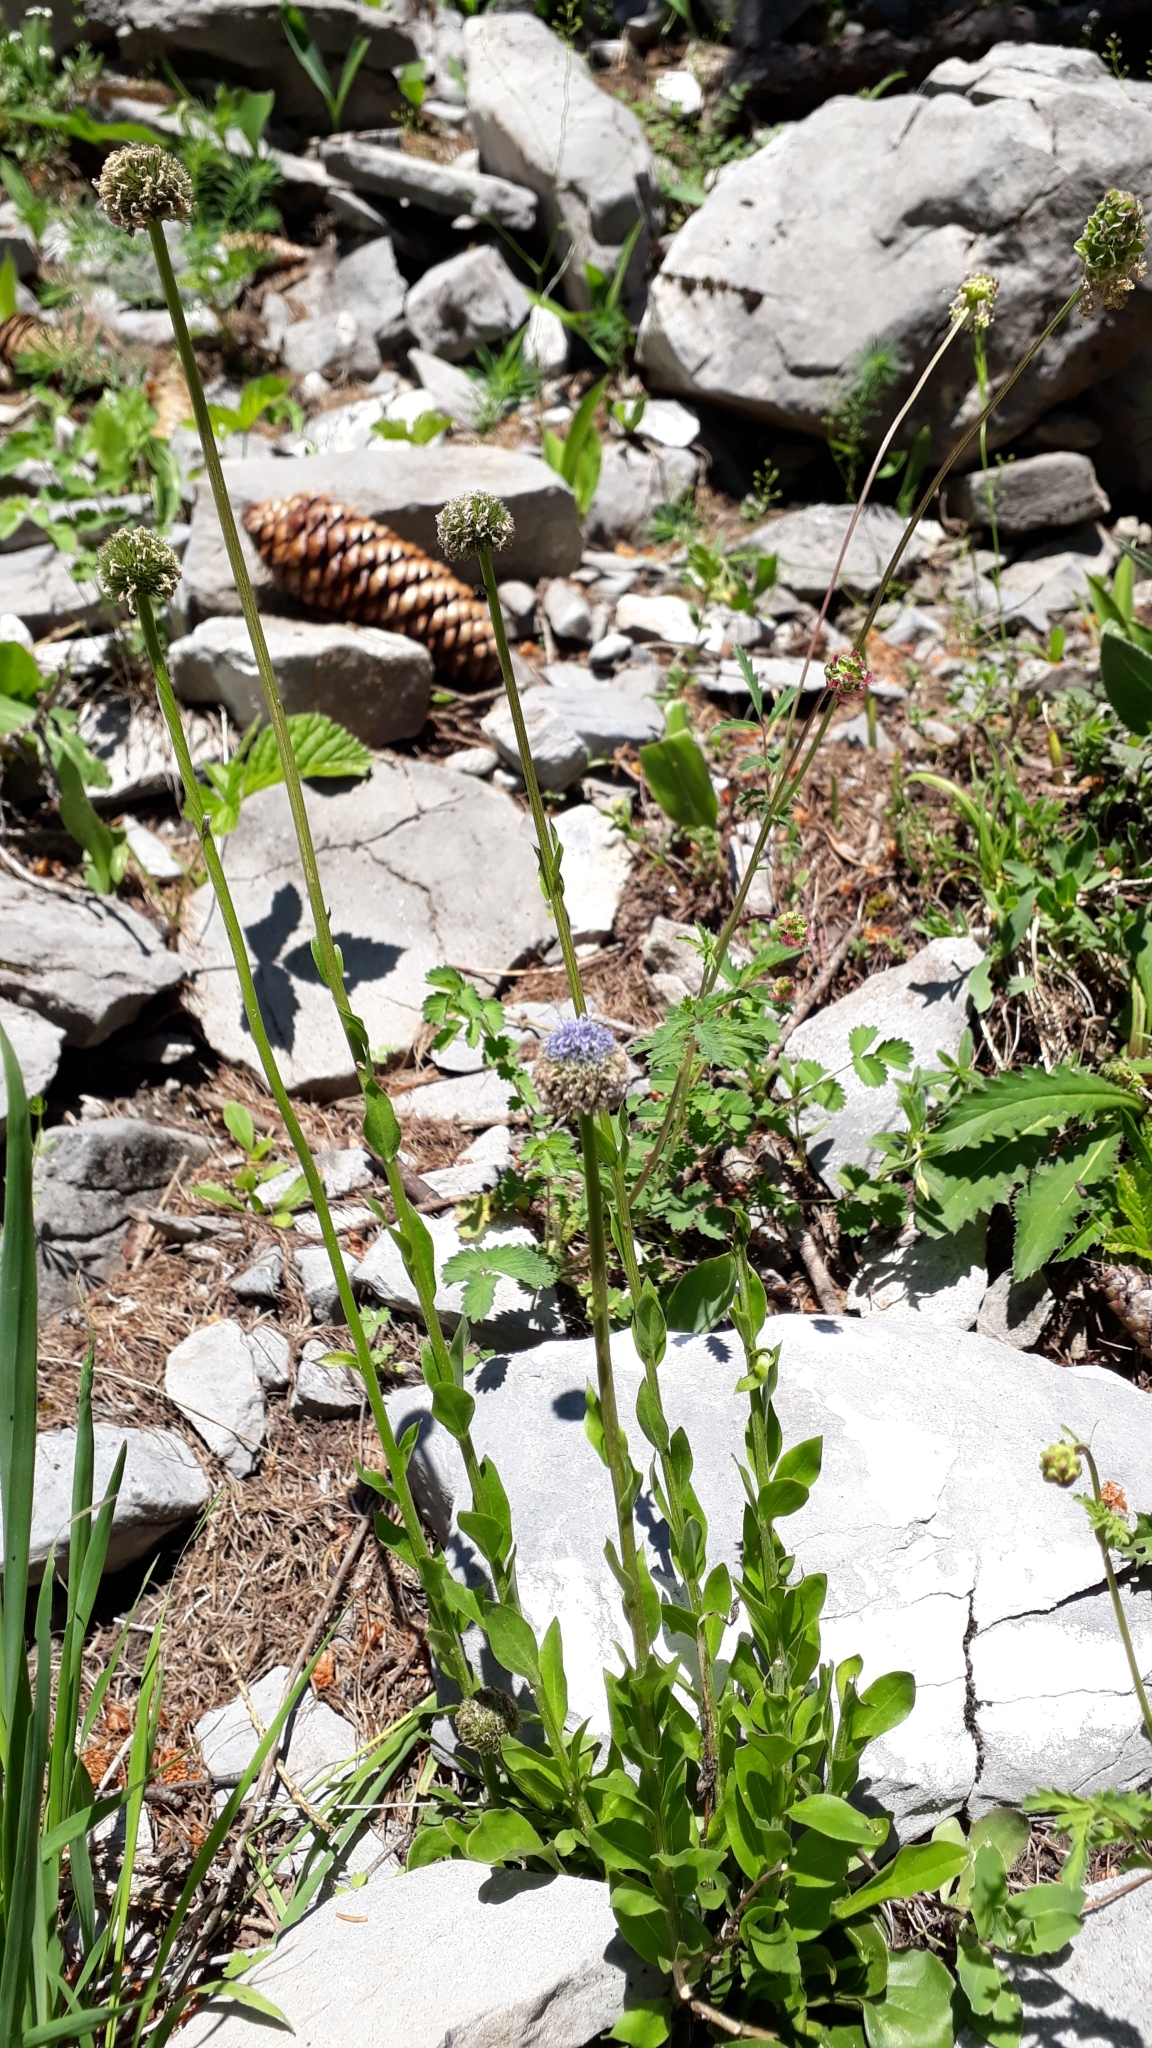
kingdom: Plantae
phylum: Tracheophyta
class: Magnoliopsida
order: Lamiales
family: Plantaginaceae
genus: Globularia
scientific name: Globularia bisnagarica
